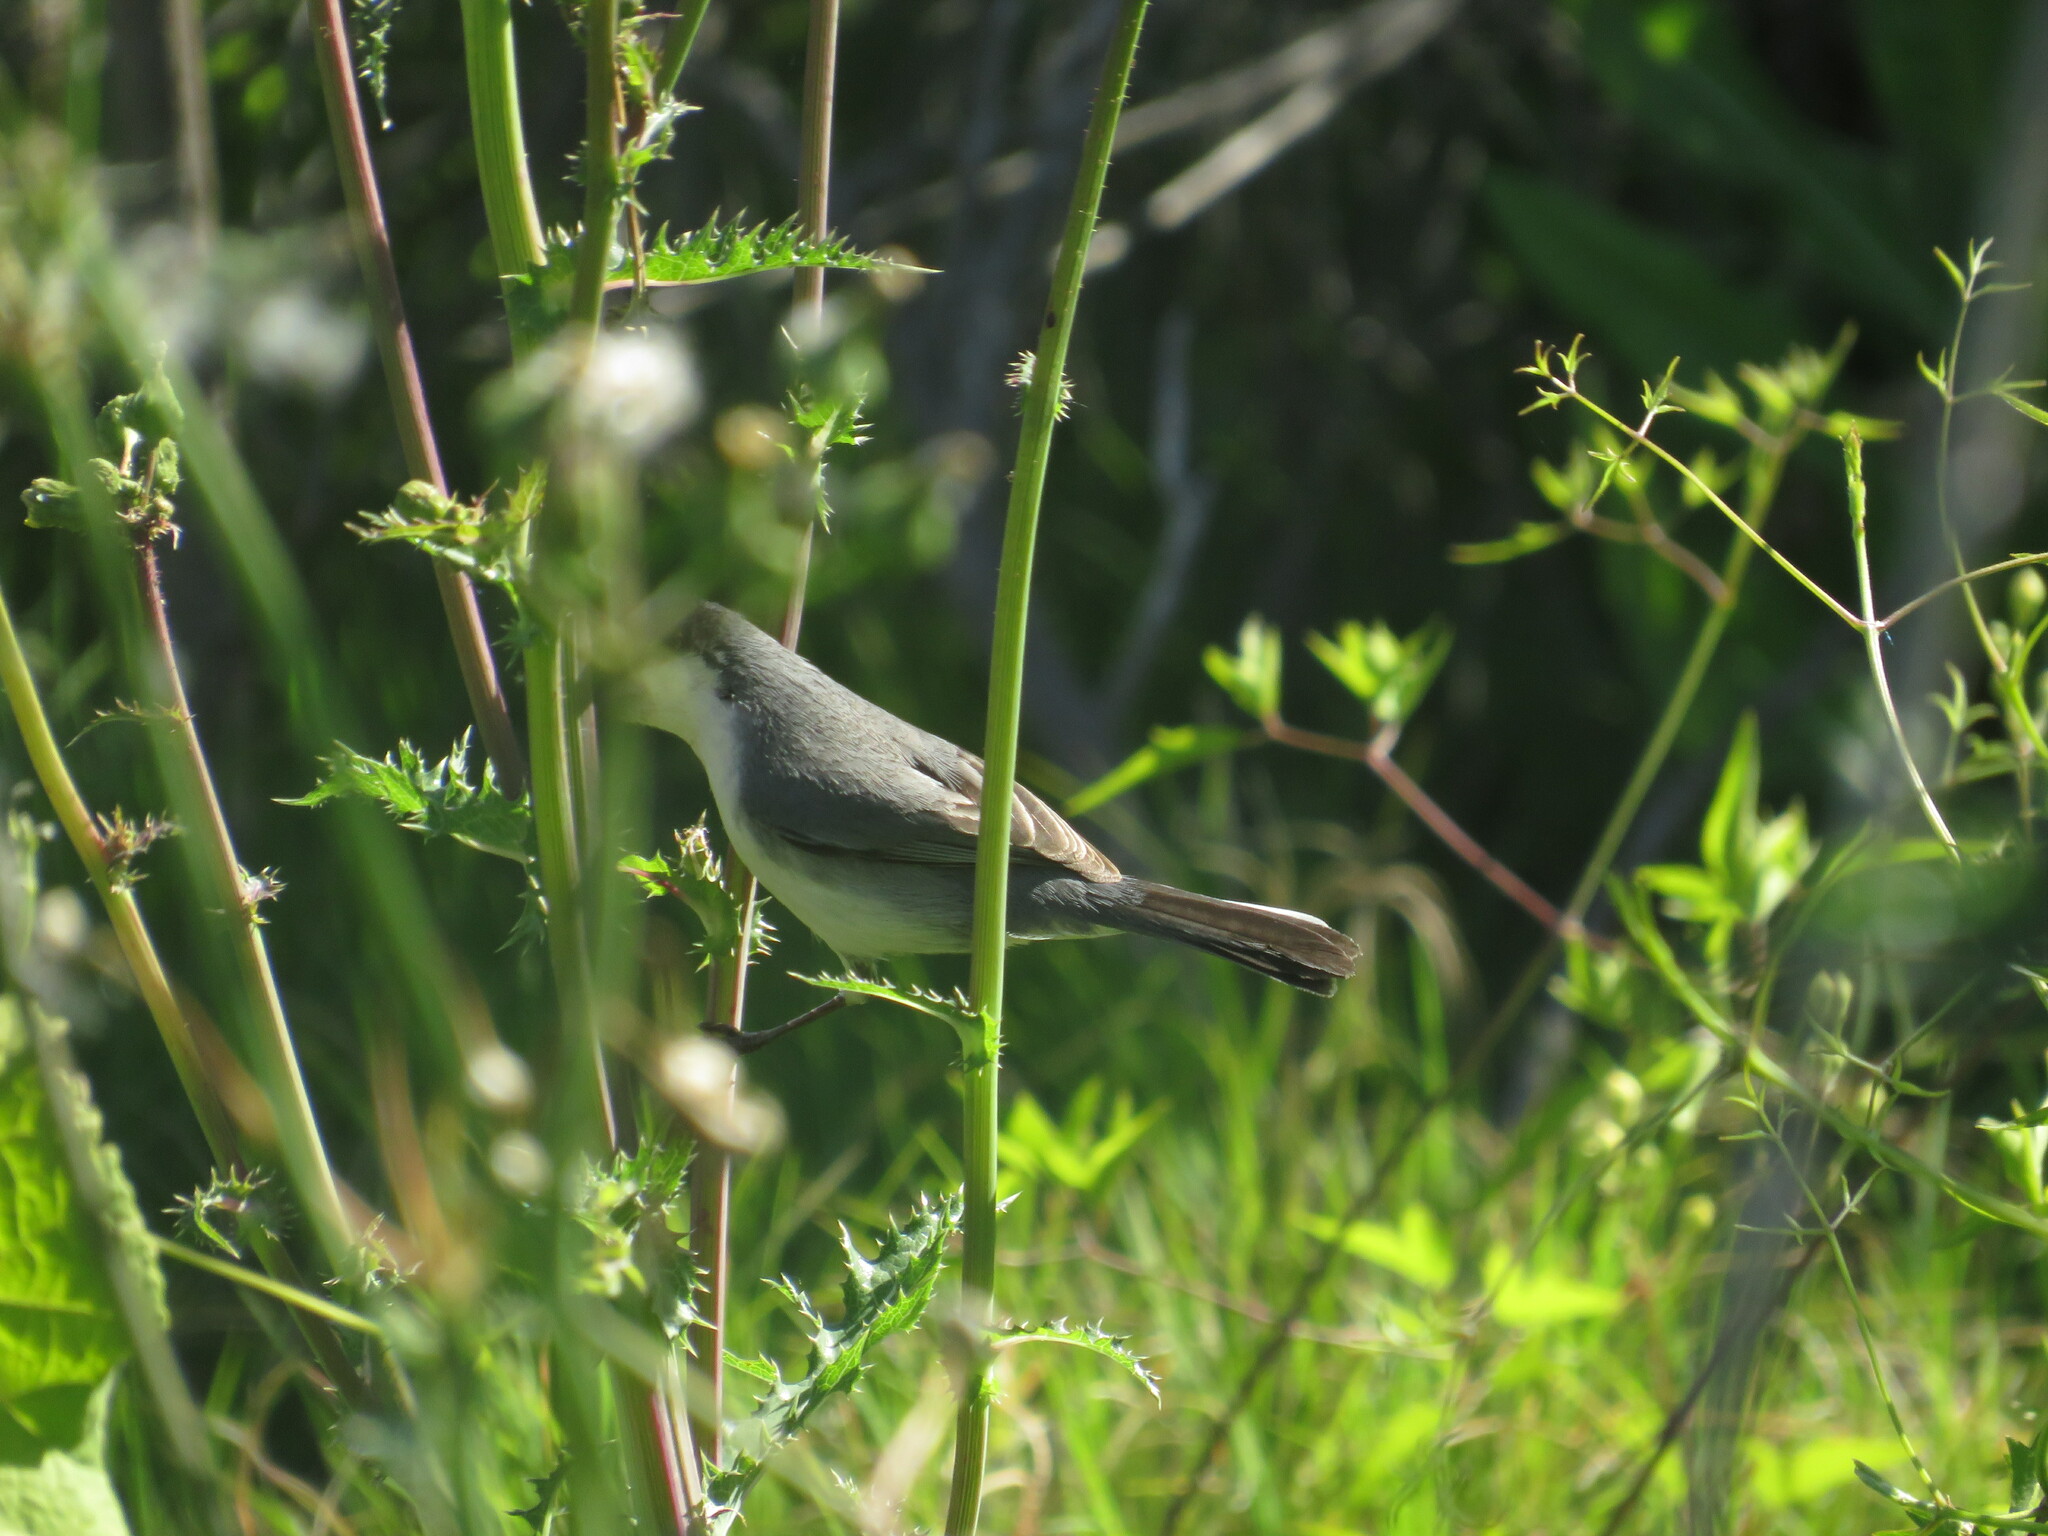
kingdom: Animalia
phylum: Chordata
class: Aves
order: Passeriformes
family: Thraupidae
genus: Microspingus
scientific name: Microspingus melanoleucus
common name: Black-capped warbling-finch
